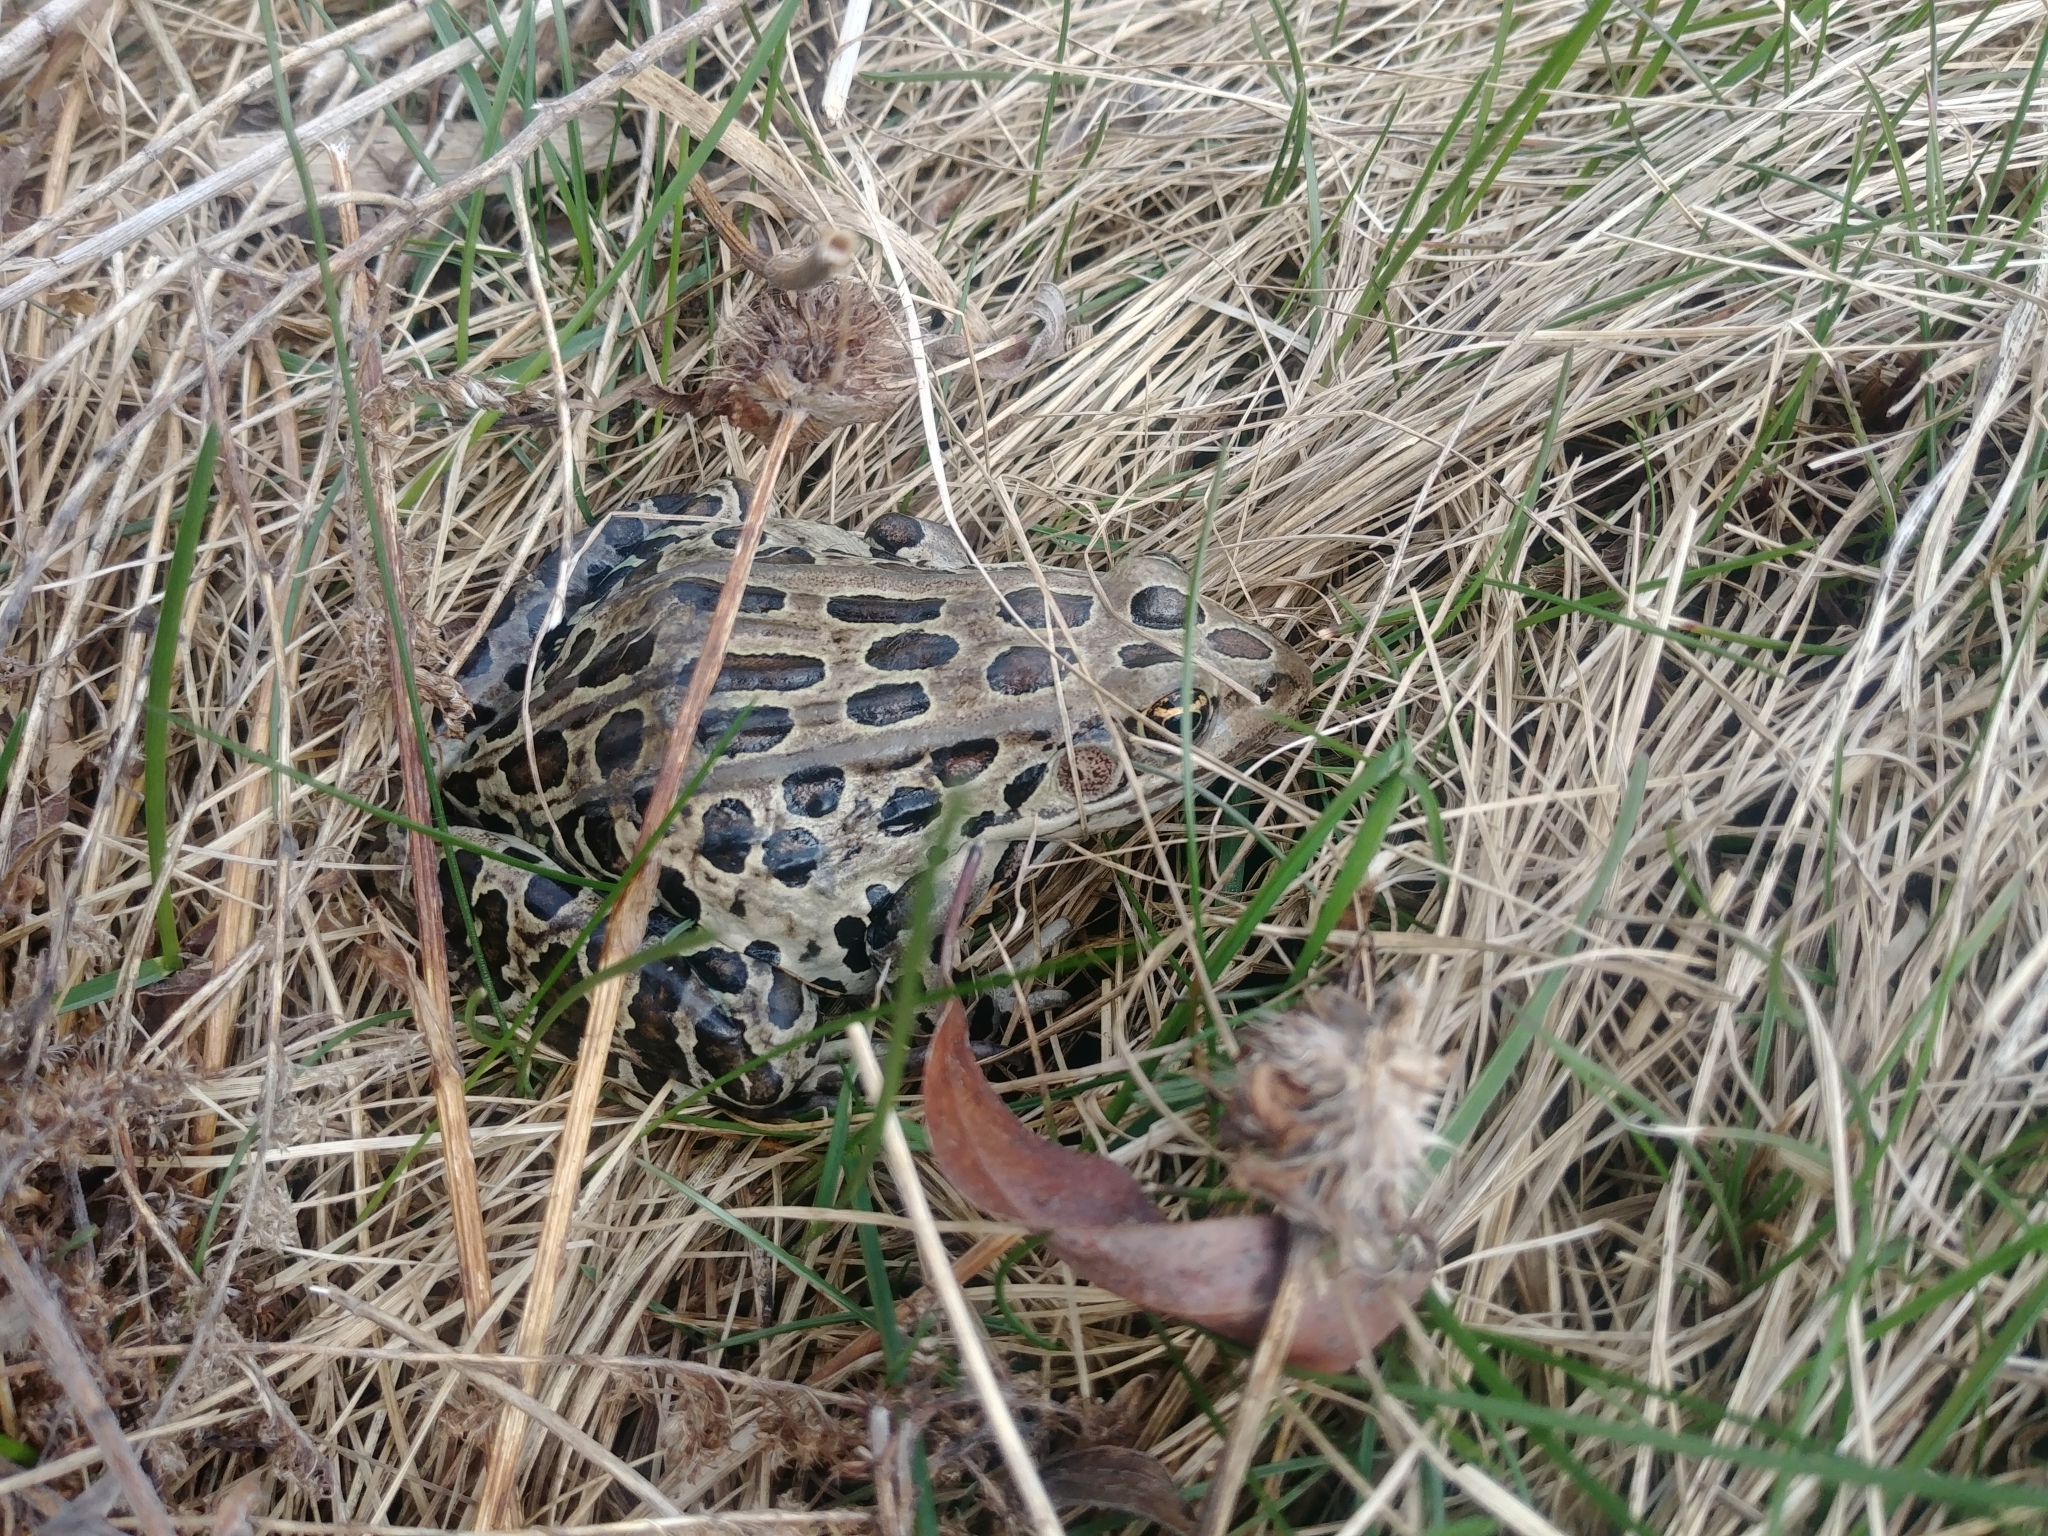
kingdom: Animalia
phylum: Chordata
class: Amphibia
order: Anura
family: Ranidae
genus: Lithobates
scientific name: Lithobates pipiens
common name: Northern leopard frog
